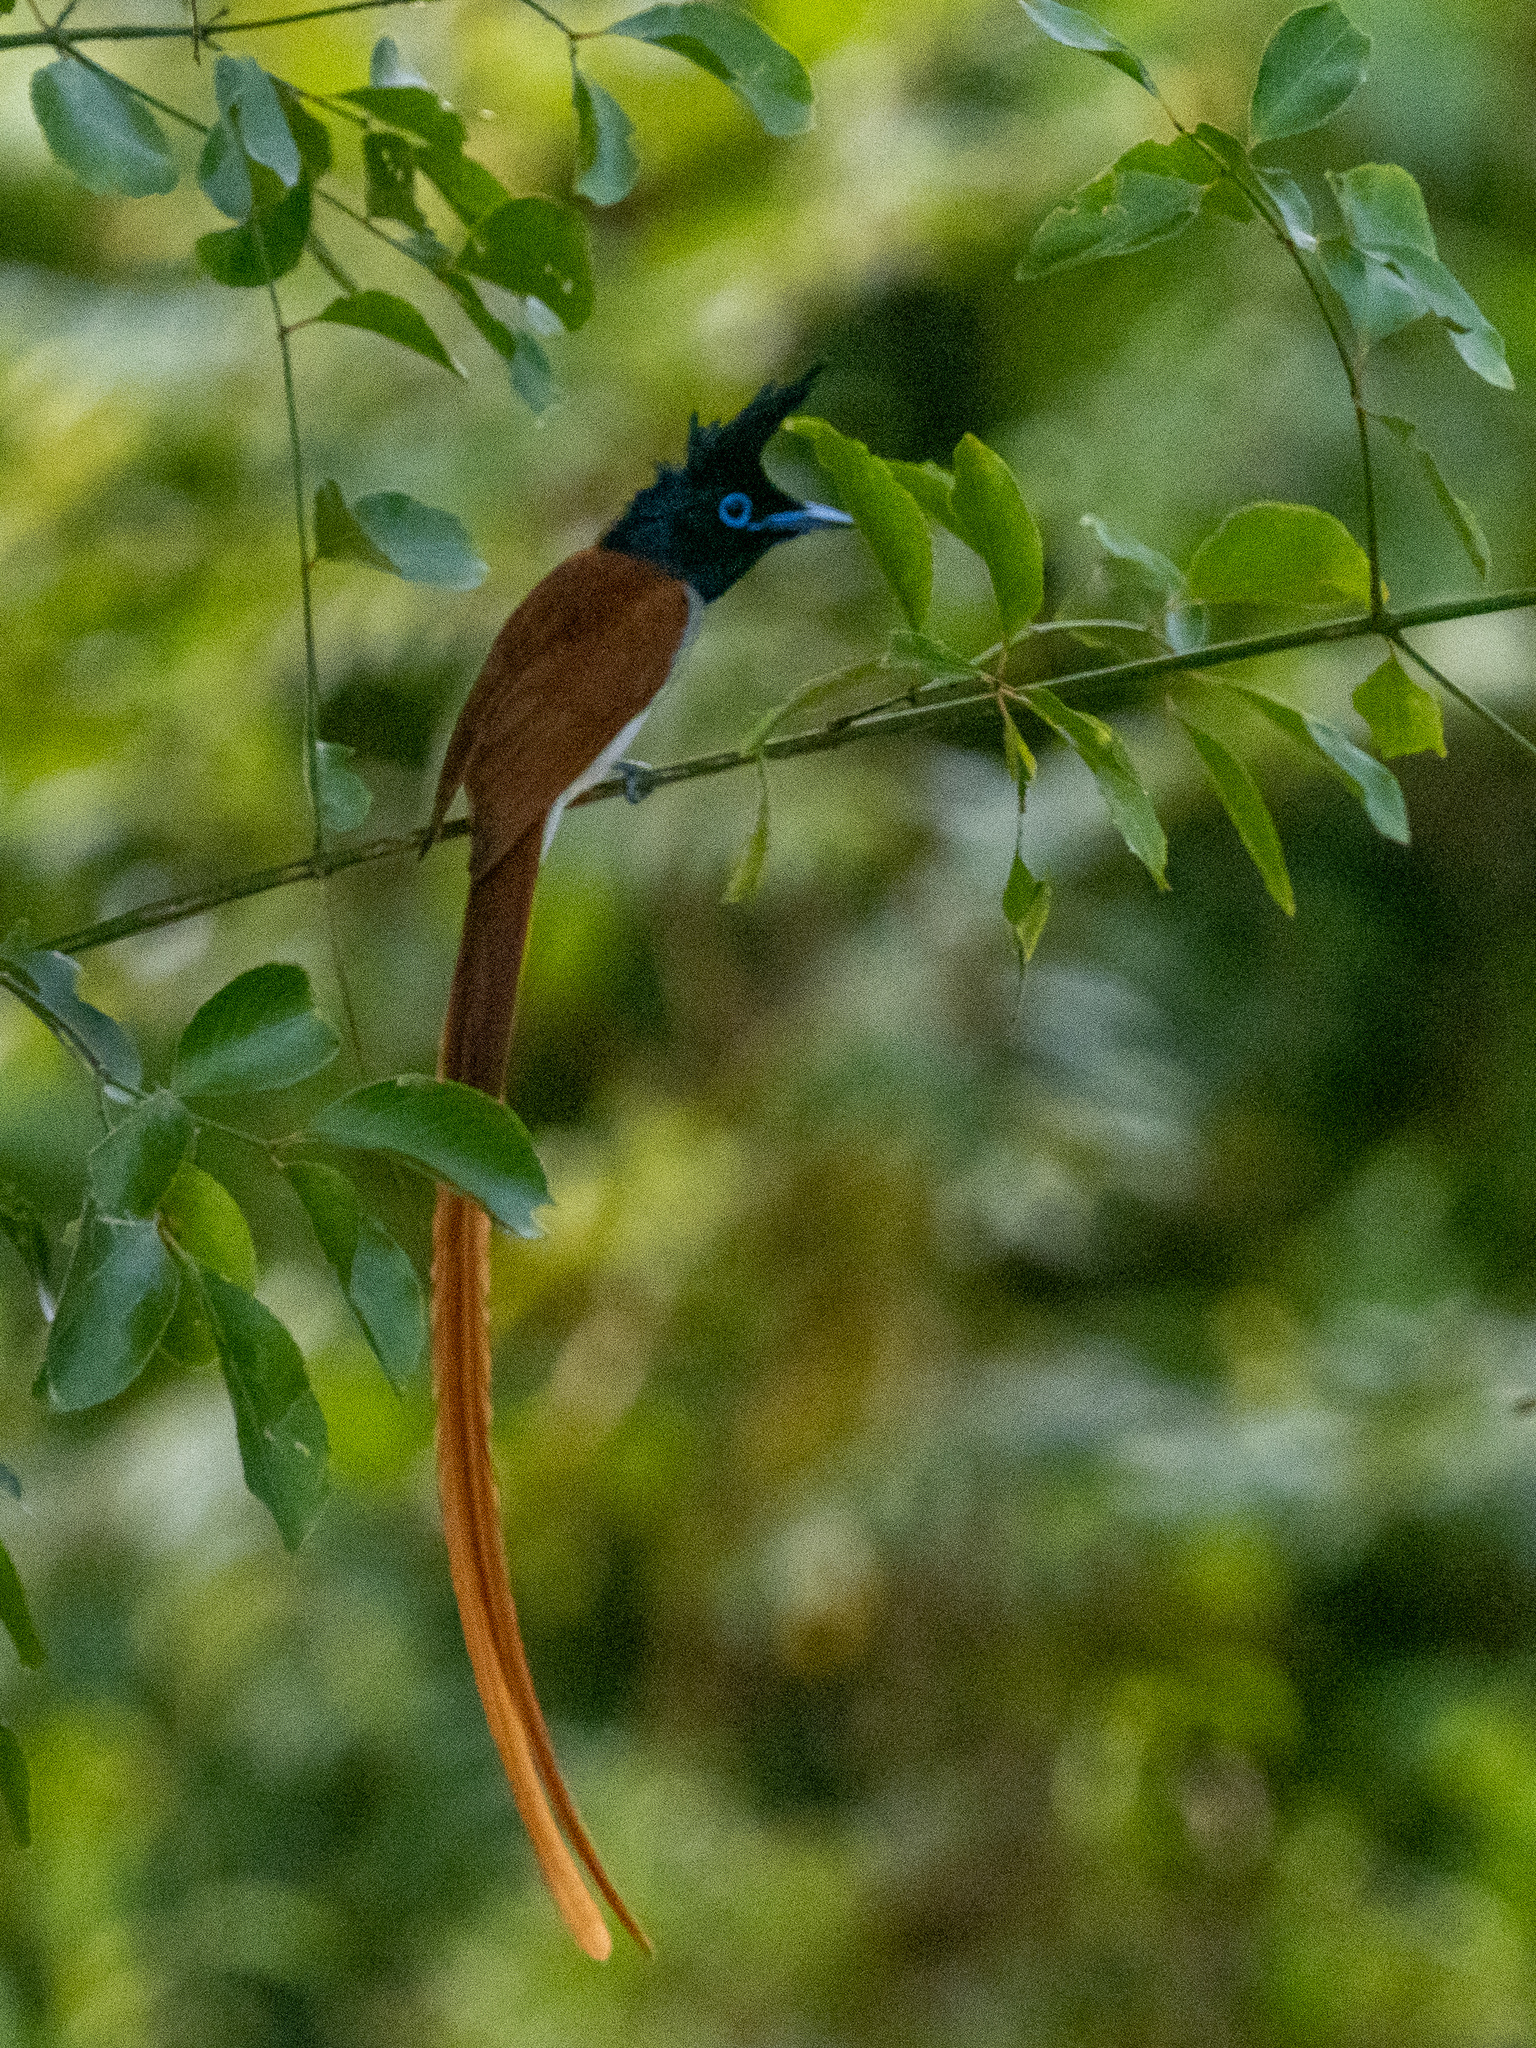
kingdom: Animalia
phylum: Chordata
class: Aves
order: Passeriformes
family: Monarchidae
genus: Terpsiphone
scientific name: Terpsiphone paradisi
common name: Indian paradise flycatcher
